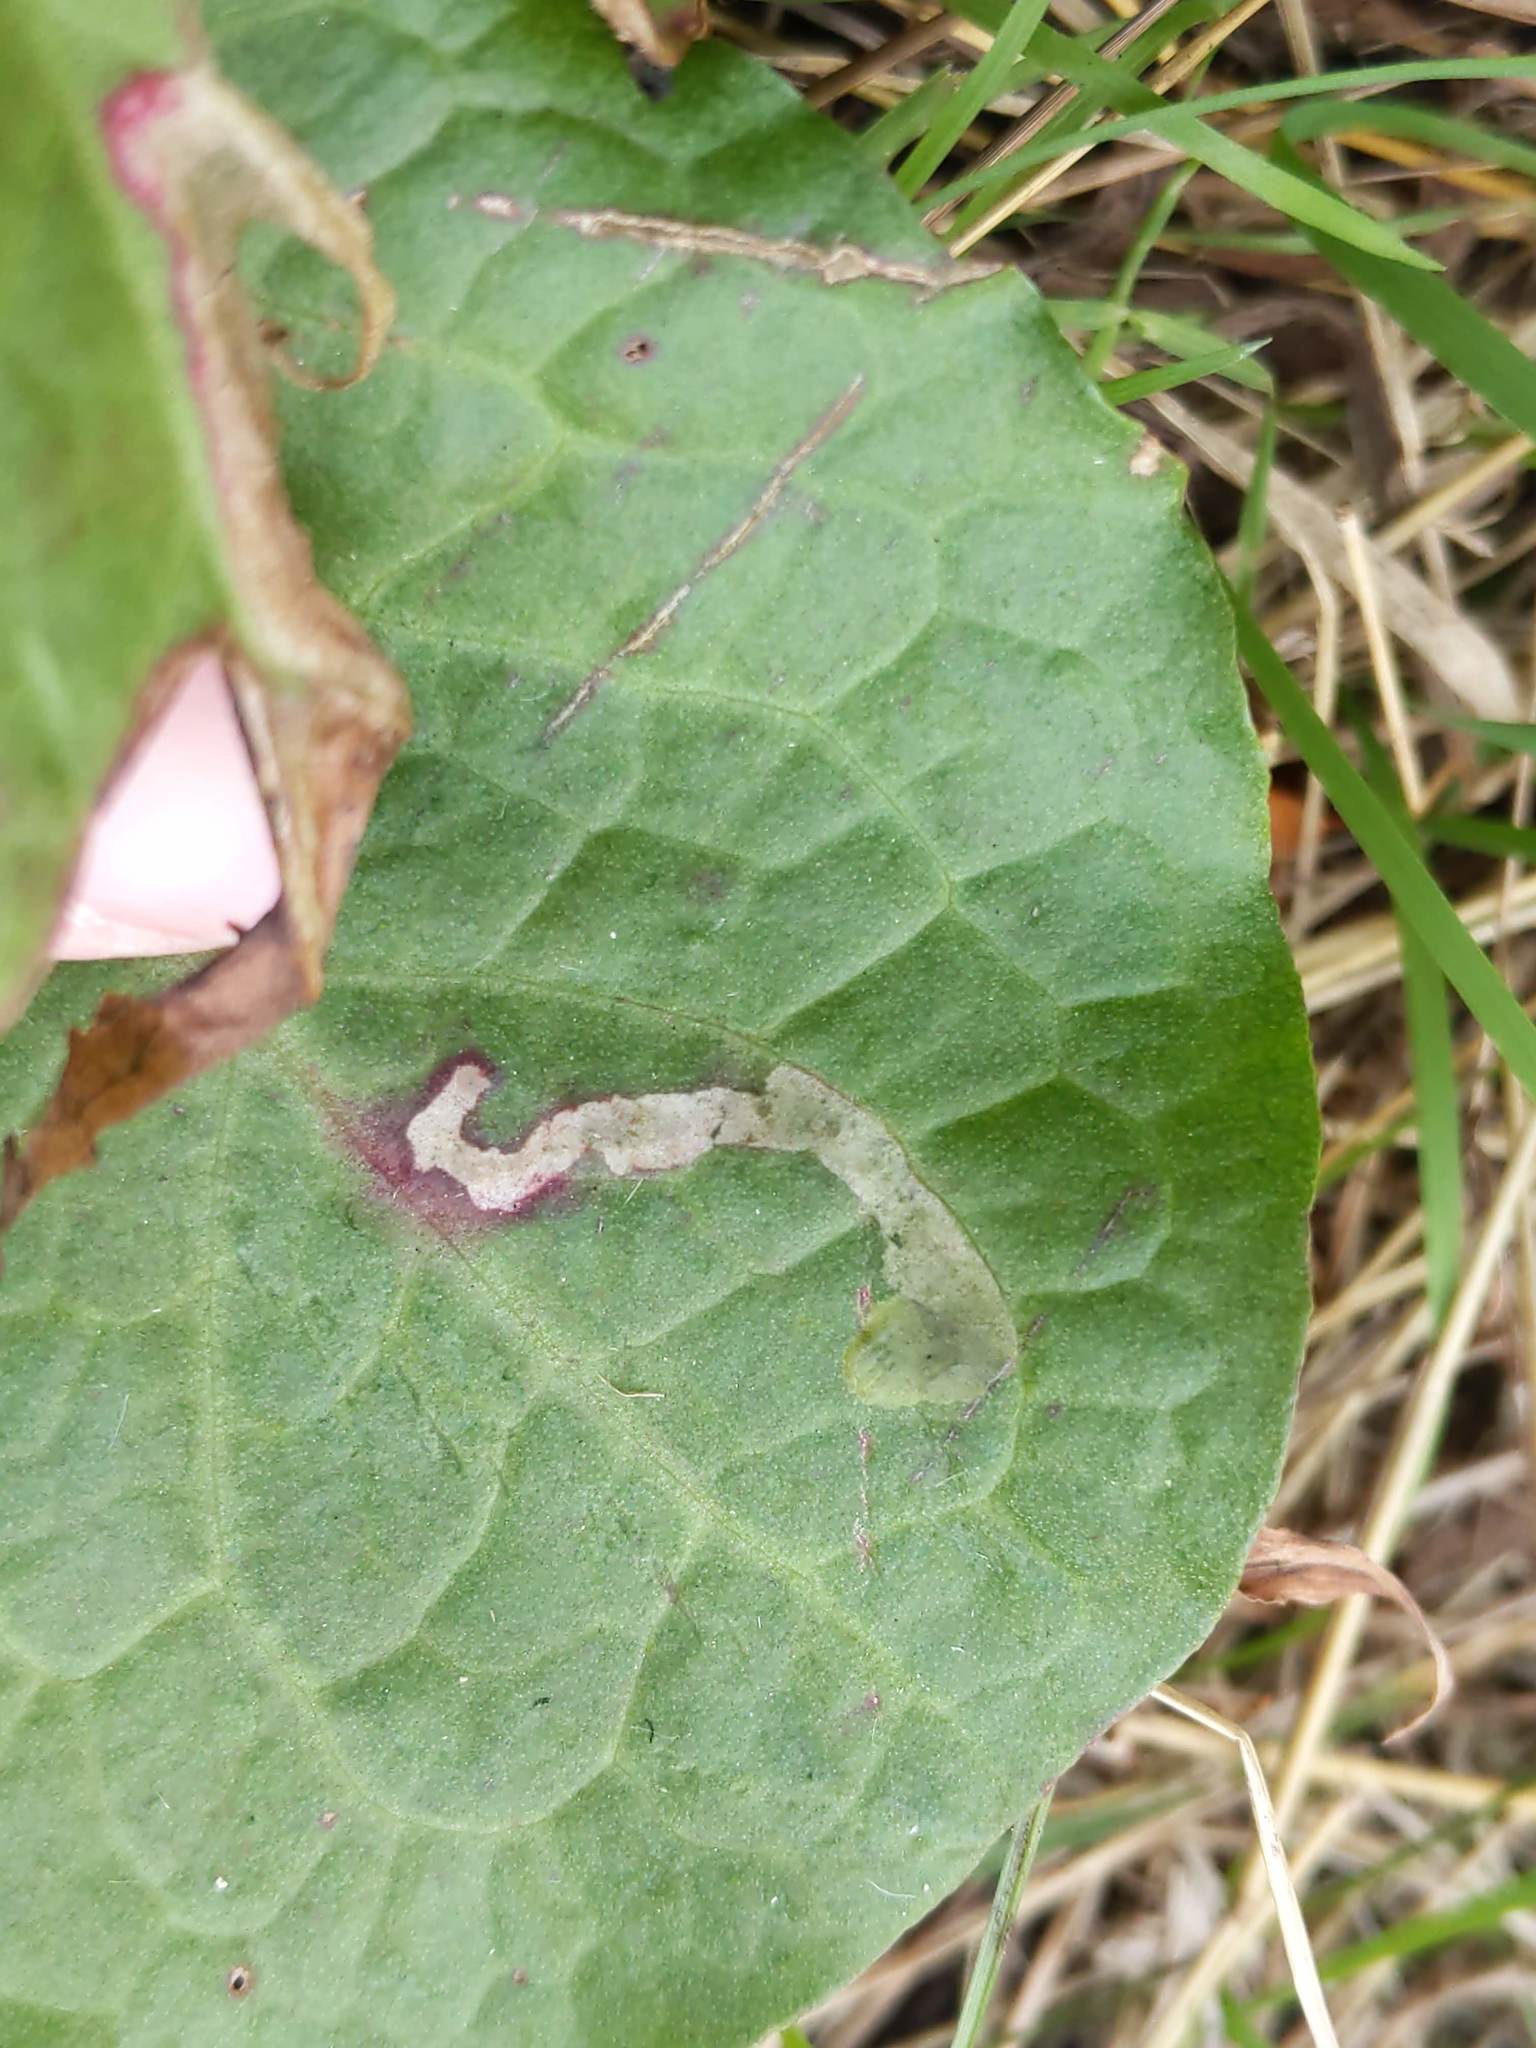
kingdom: Animalia
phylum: Arthropoda
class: Insecta
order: Diptera
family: Anthomyiidae
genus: Pegomya
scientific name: Pegomya bicolor
